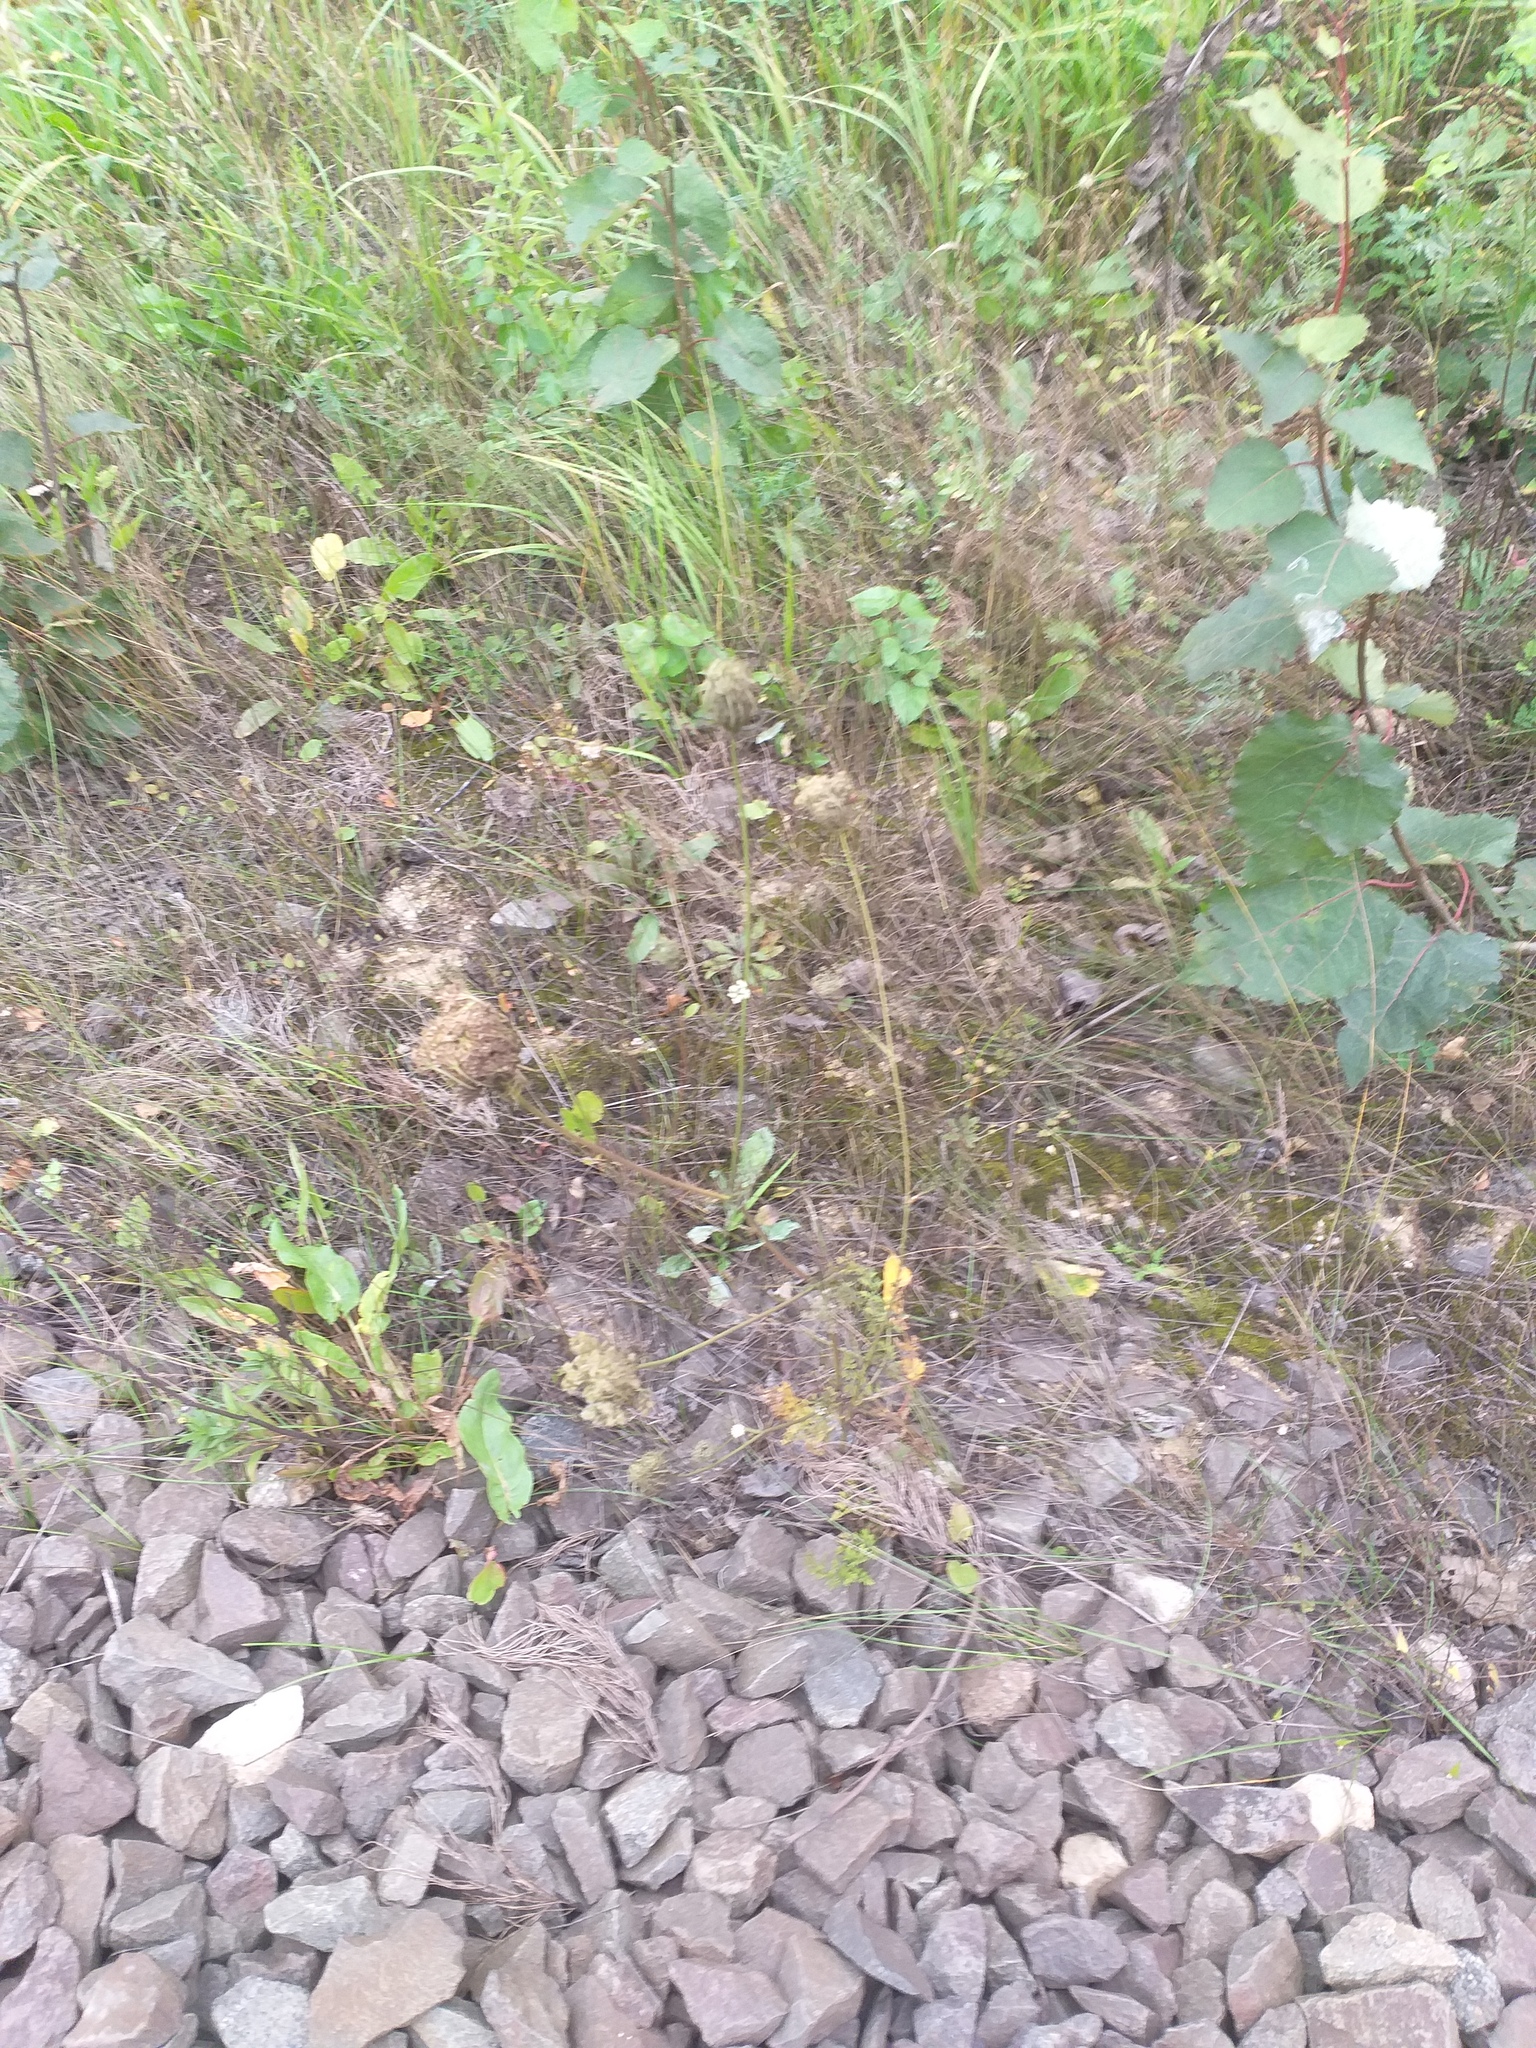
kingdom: Plantae
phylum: Tracheophyta
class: Magnoliopsida
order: Apiales
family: Apiaceae
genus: Daucus
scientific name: Daucus carota
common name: Wild carrot
